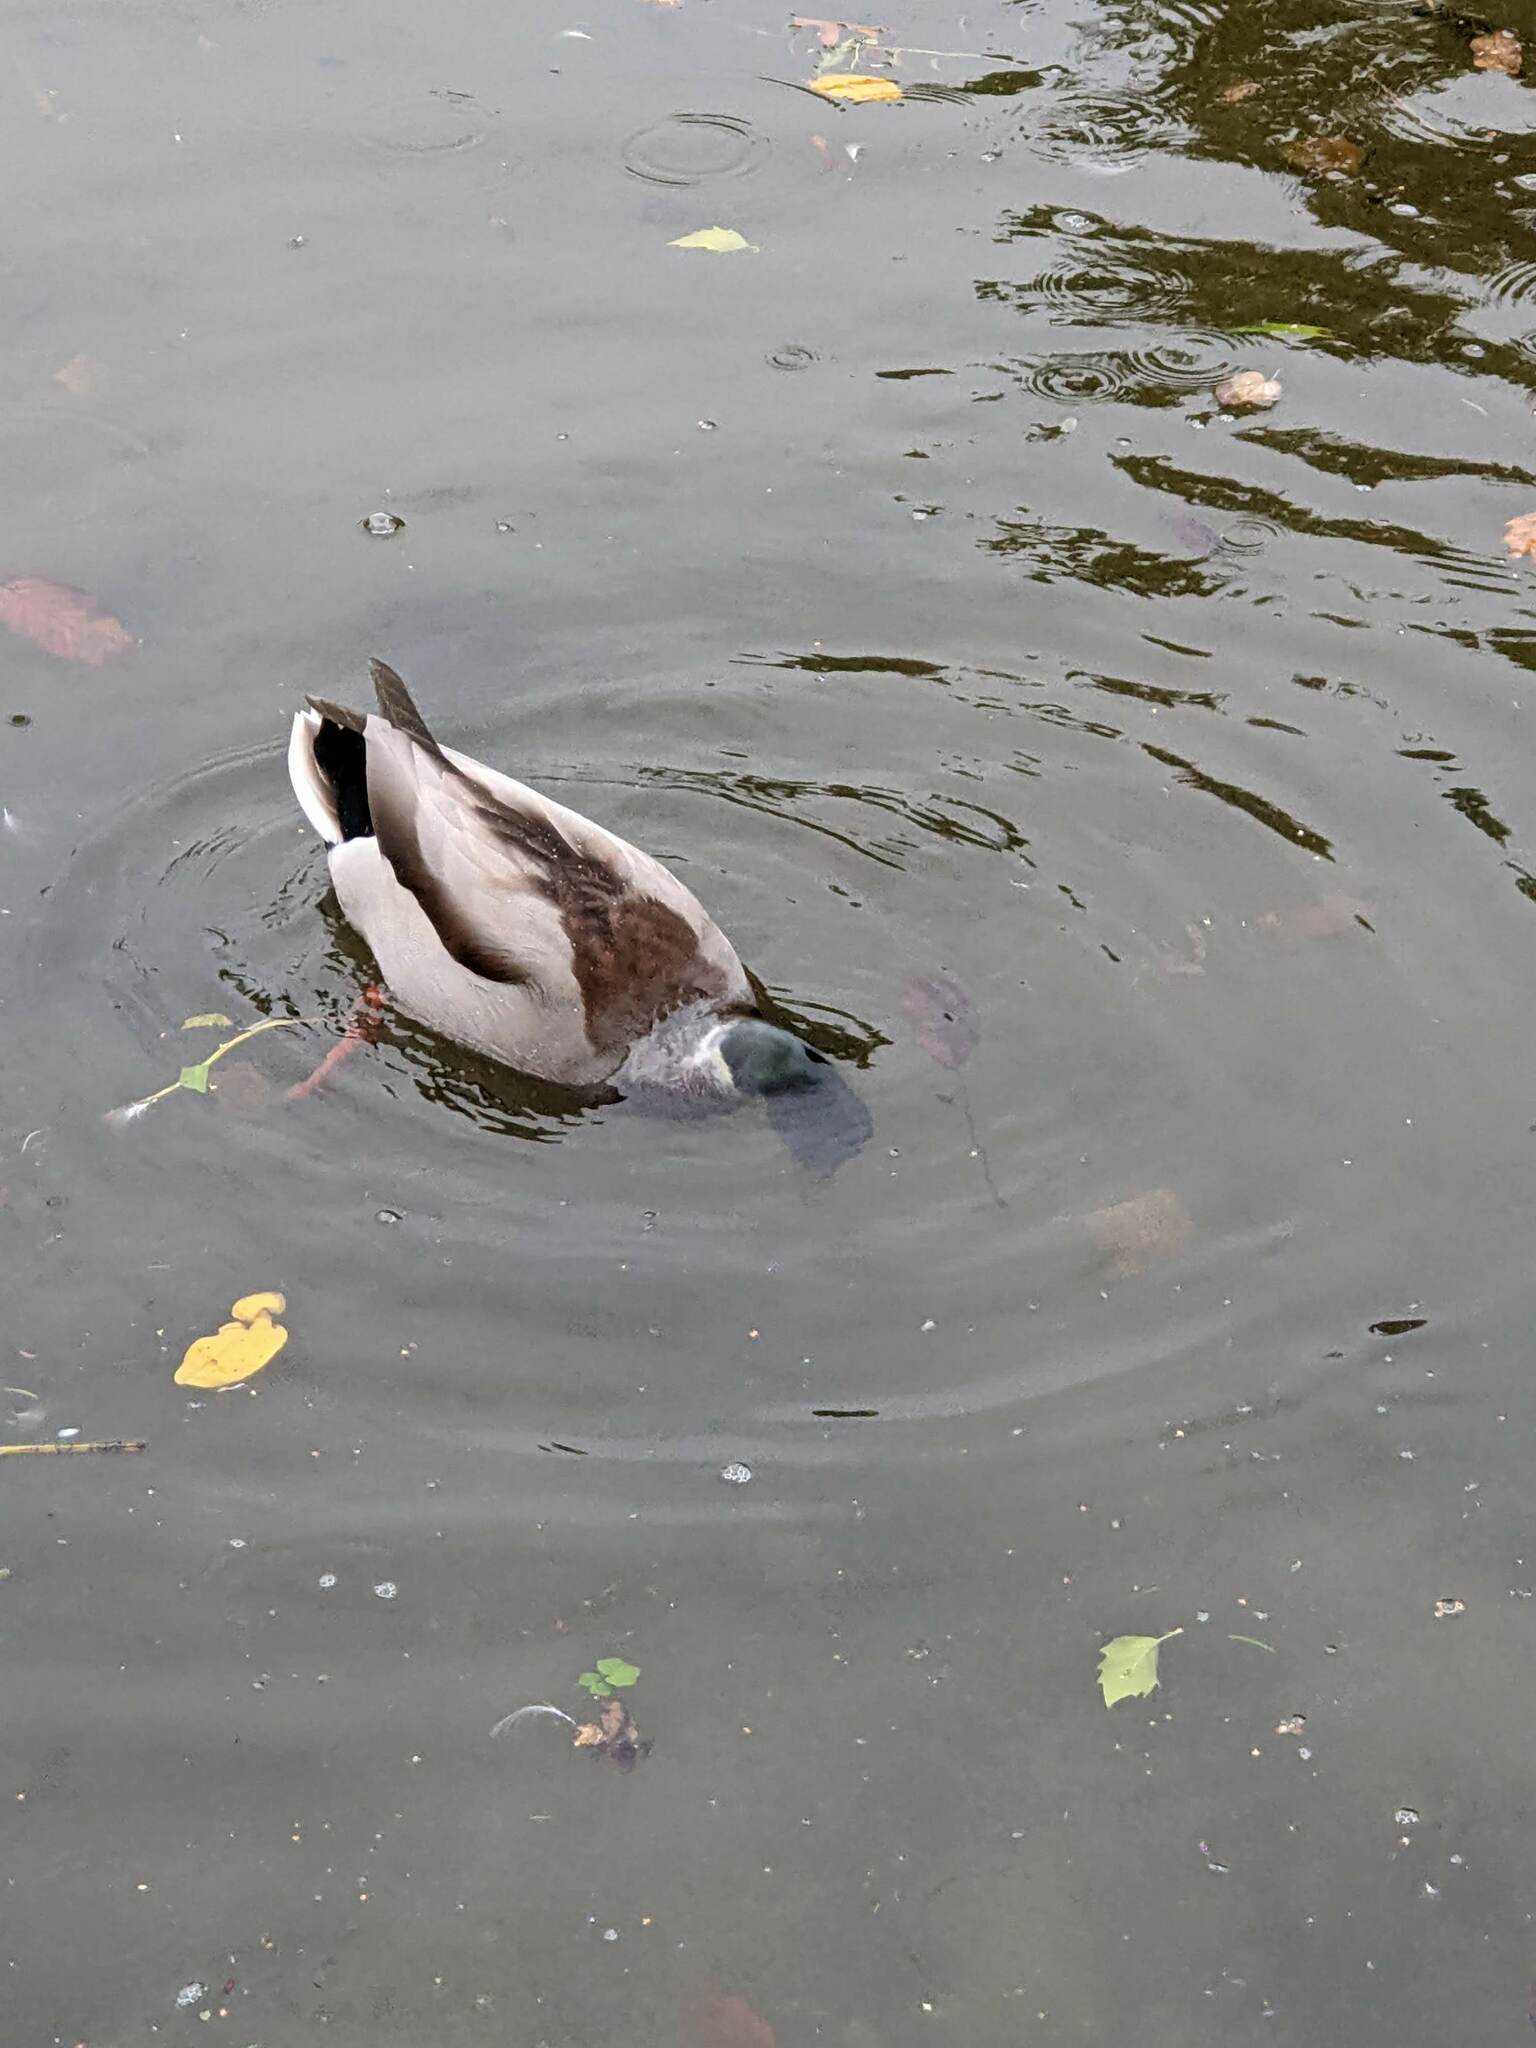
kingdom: Animalia
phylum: Chordata
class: Aves
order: Anseriformes
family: Anatidae
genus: Anas
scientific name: Anas platyrhynchos
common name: Mallard
